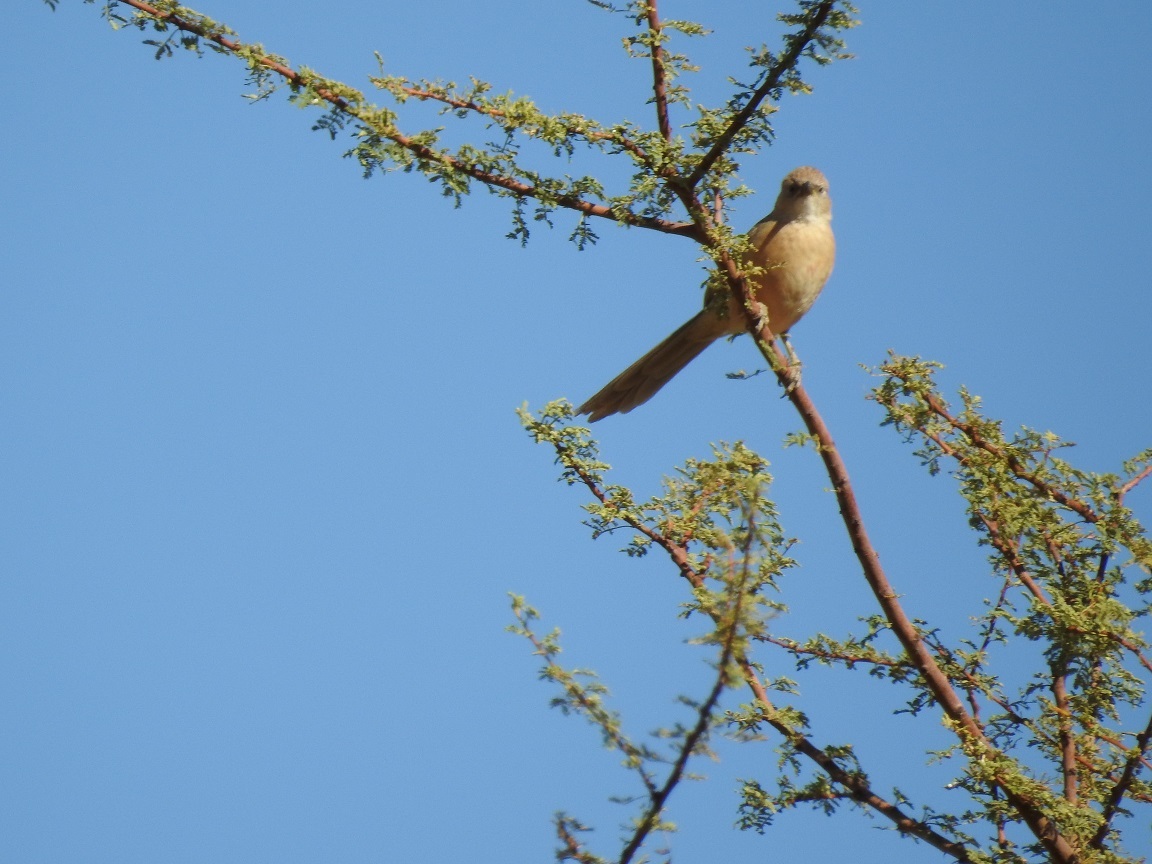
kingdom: Animalia
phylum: Chordata
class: Aves
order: Passeriformes
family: Leiothrichidae
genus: Turdoides
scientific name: Turdoides fulva
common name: Fulvous babbler
